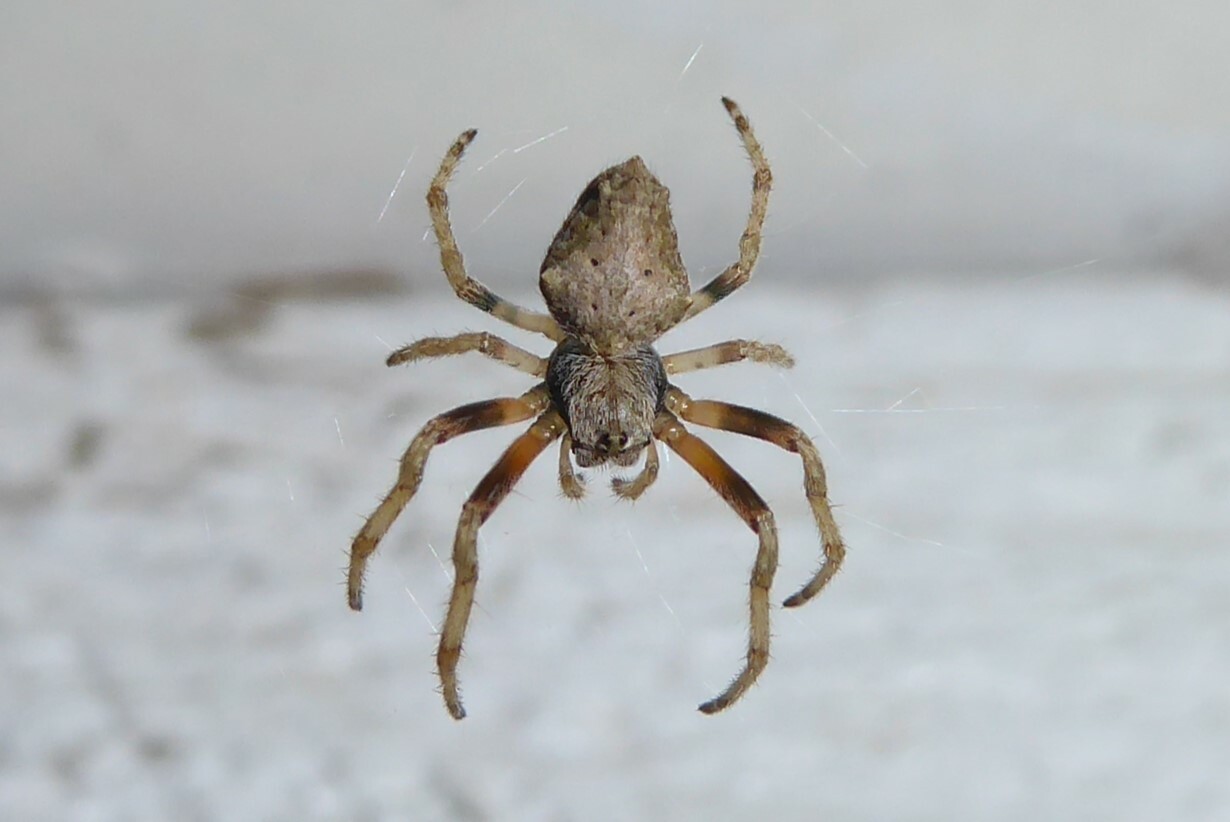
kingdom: Animalia
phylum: Arthropoda
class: Arachnida
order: Araneae
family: Araneidae
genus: Eriophora
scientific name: Eriophora pustulosa
